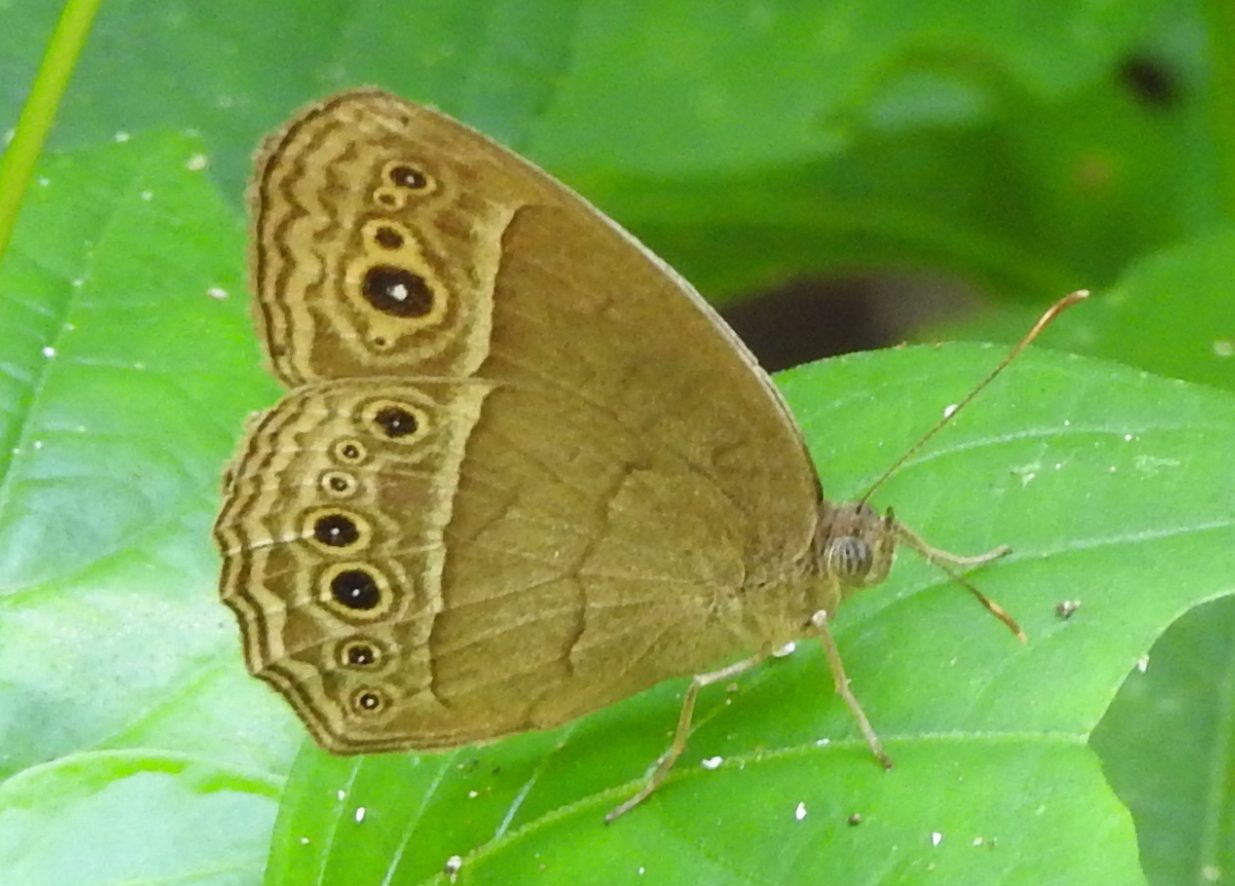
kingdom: Animalia
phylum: Arthropoda
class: Insecta
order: Lepidoptera
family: Nymphalidae
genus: Mycalesis
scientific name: Mycalesis visala
